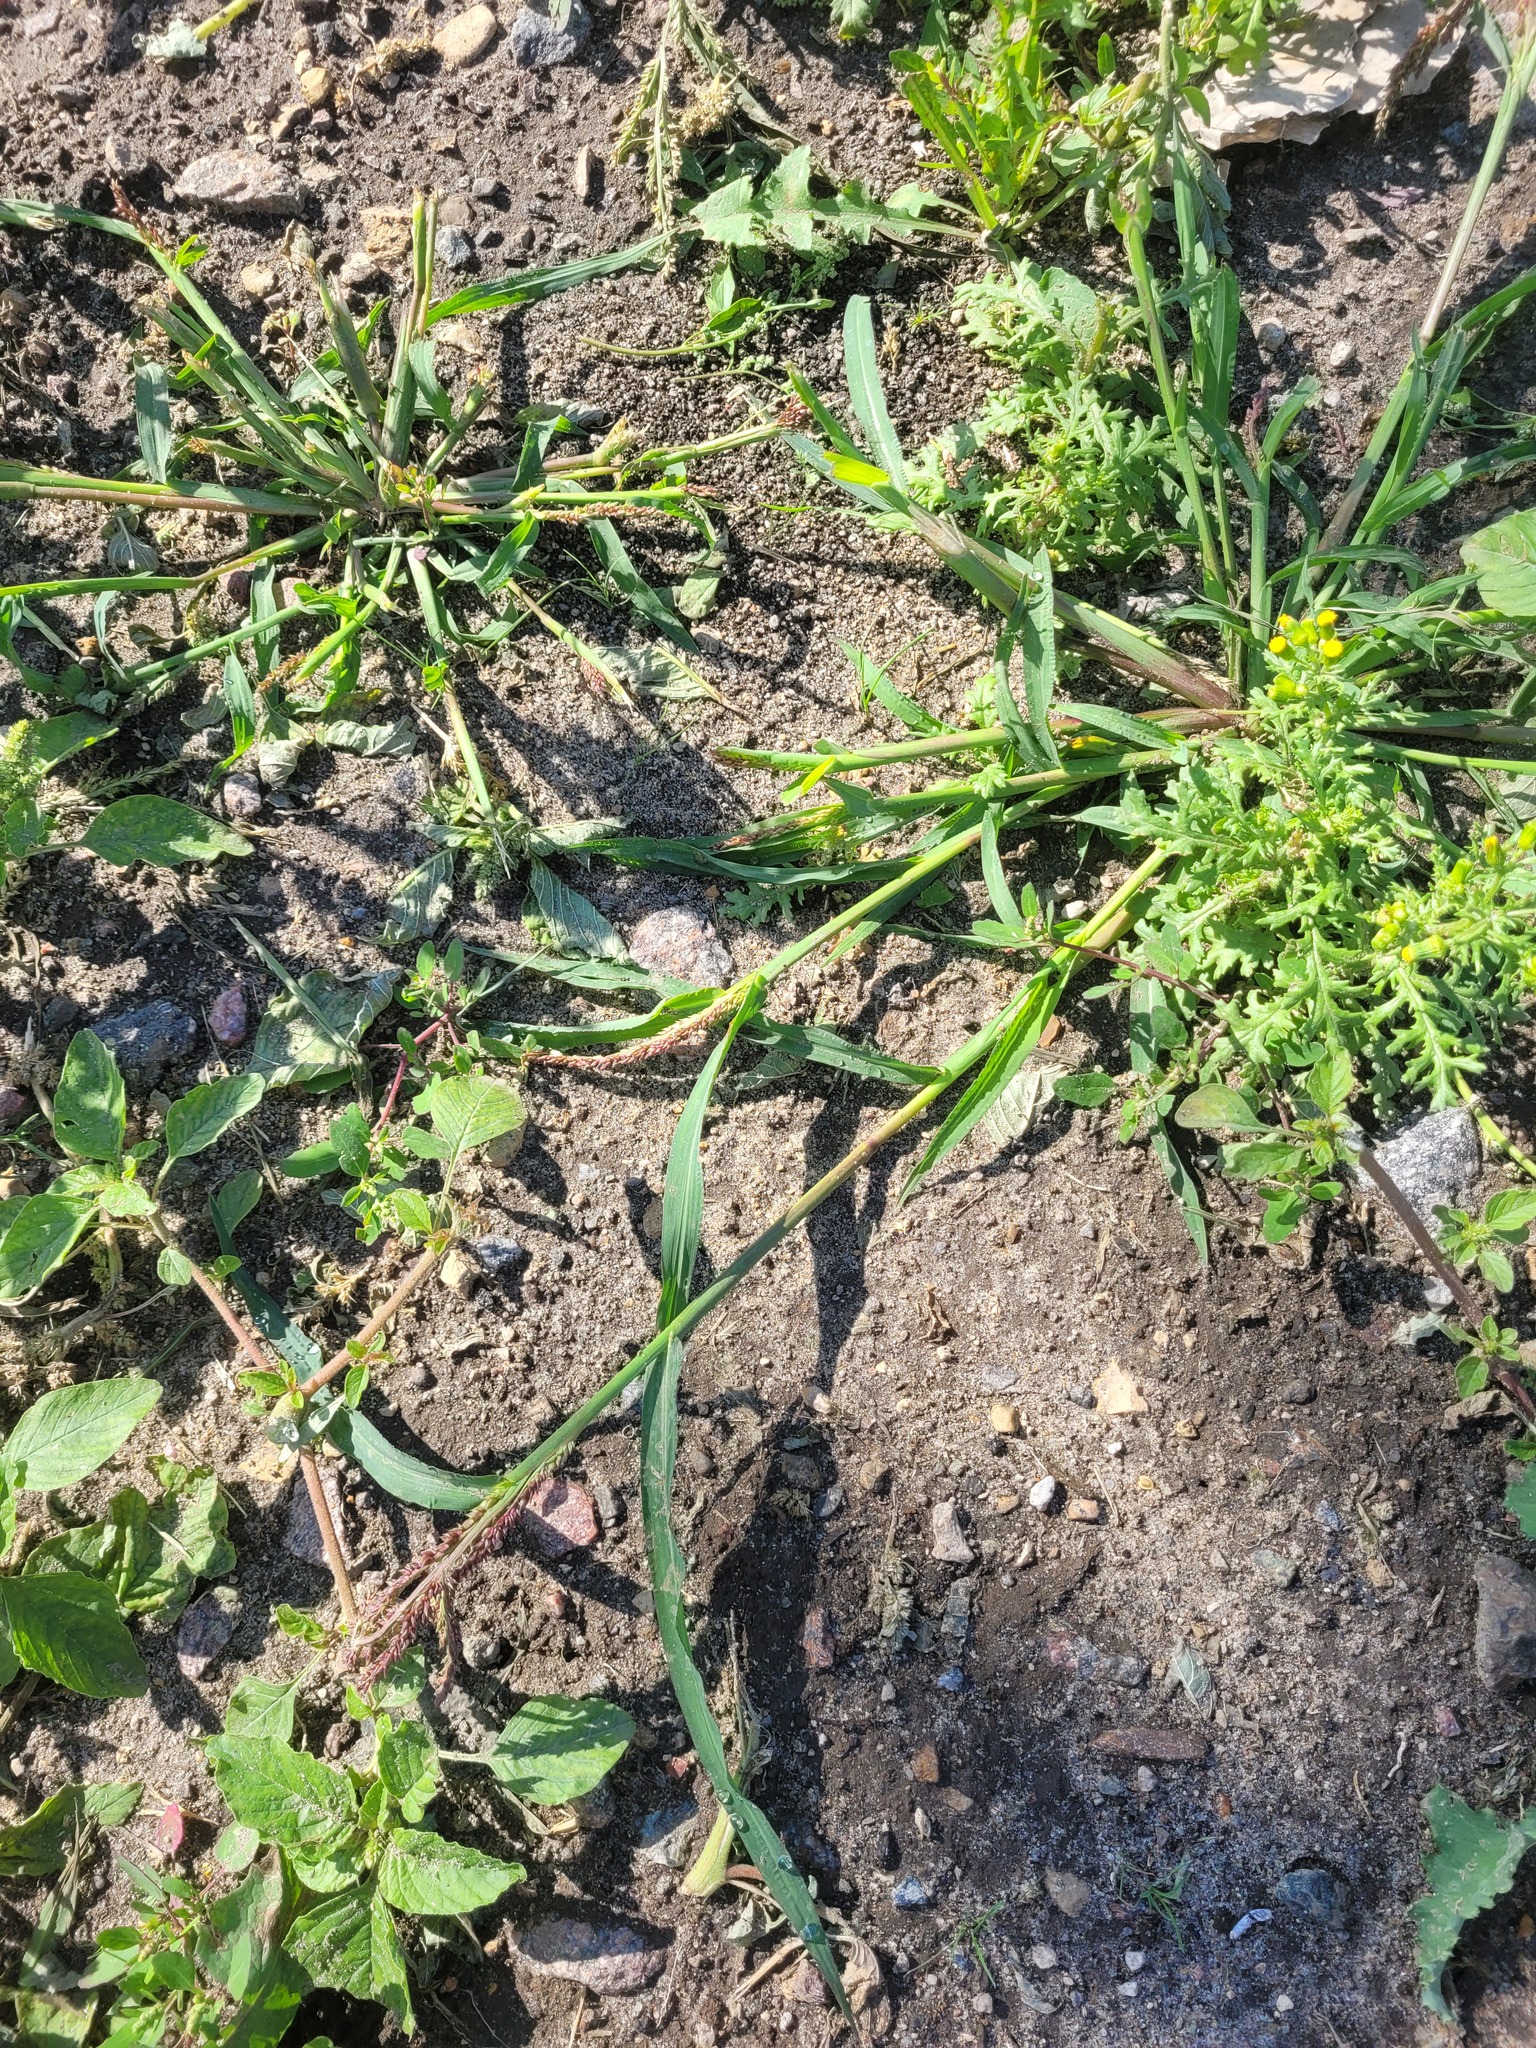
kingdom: Plantae
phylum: Tracheophyta
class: Liliopsida
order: Poales
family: Poaceae
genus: Echinochloa
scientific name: Echinochloa crus-galli
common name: Cockspur
